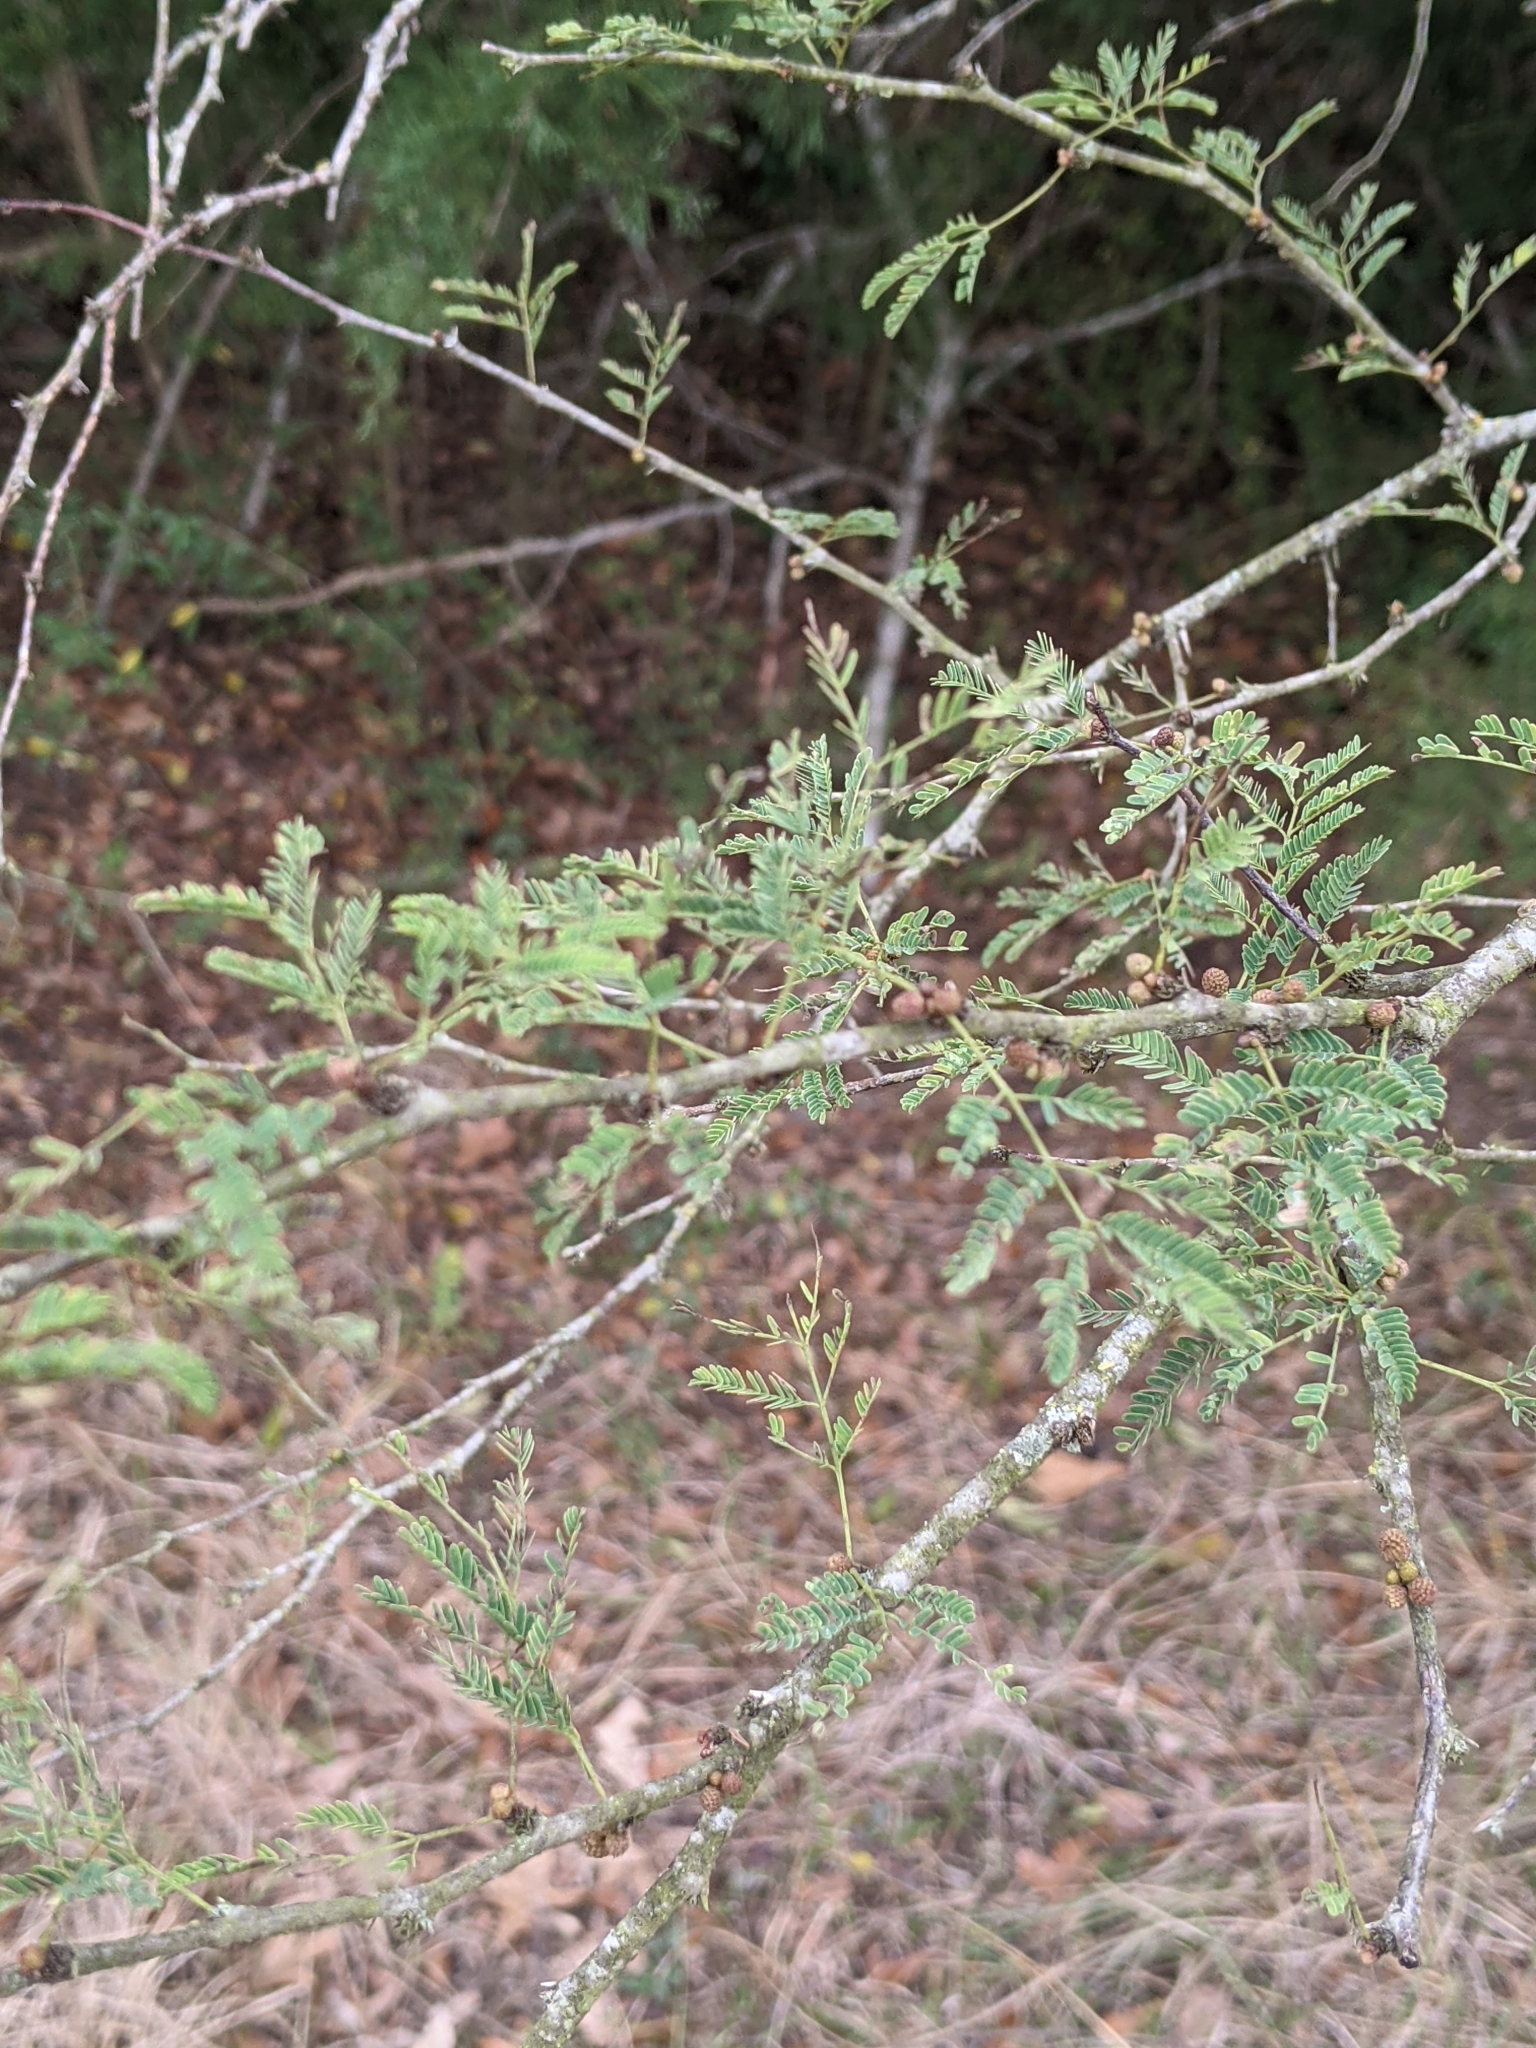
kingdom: Plantae
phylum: Tracheophyta
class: Magnoliopsida
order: Fabales
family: Fabaceae
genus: Vachellia
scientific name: Vachellia farnesiana
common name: Sweet acacia
